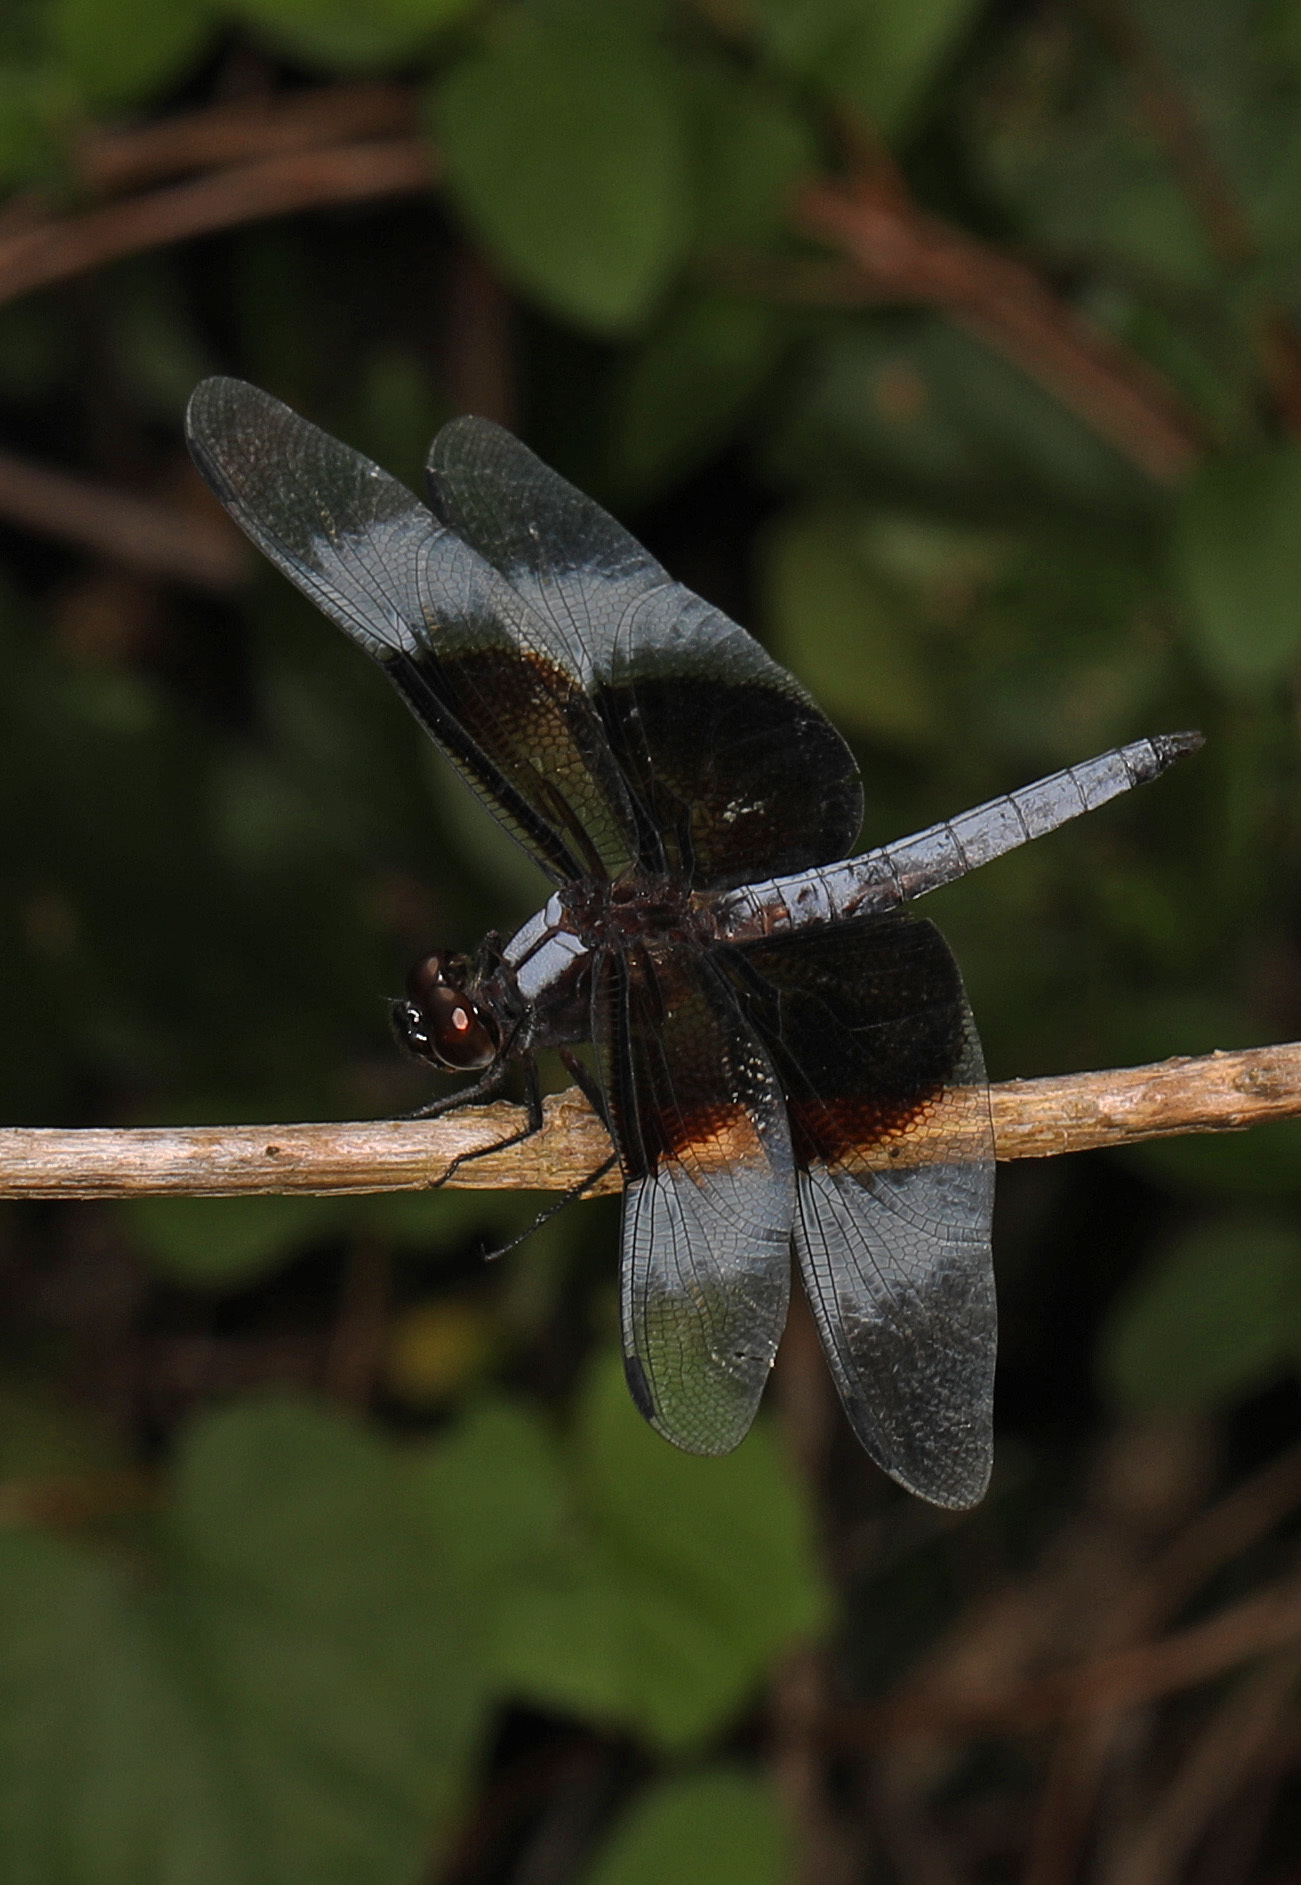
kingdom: Animalia
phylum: Arthropoda
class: Insecta
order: Odonata
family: Libellulidae
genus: Libellula
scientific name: Libellula luctuosa
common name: Widow skimmer
